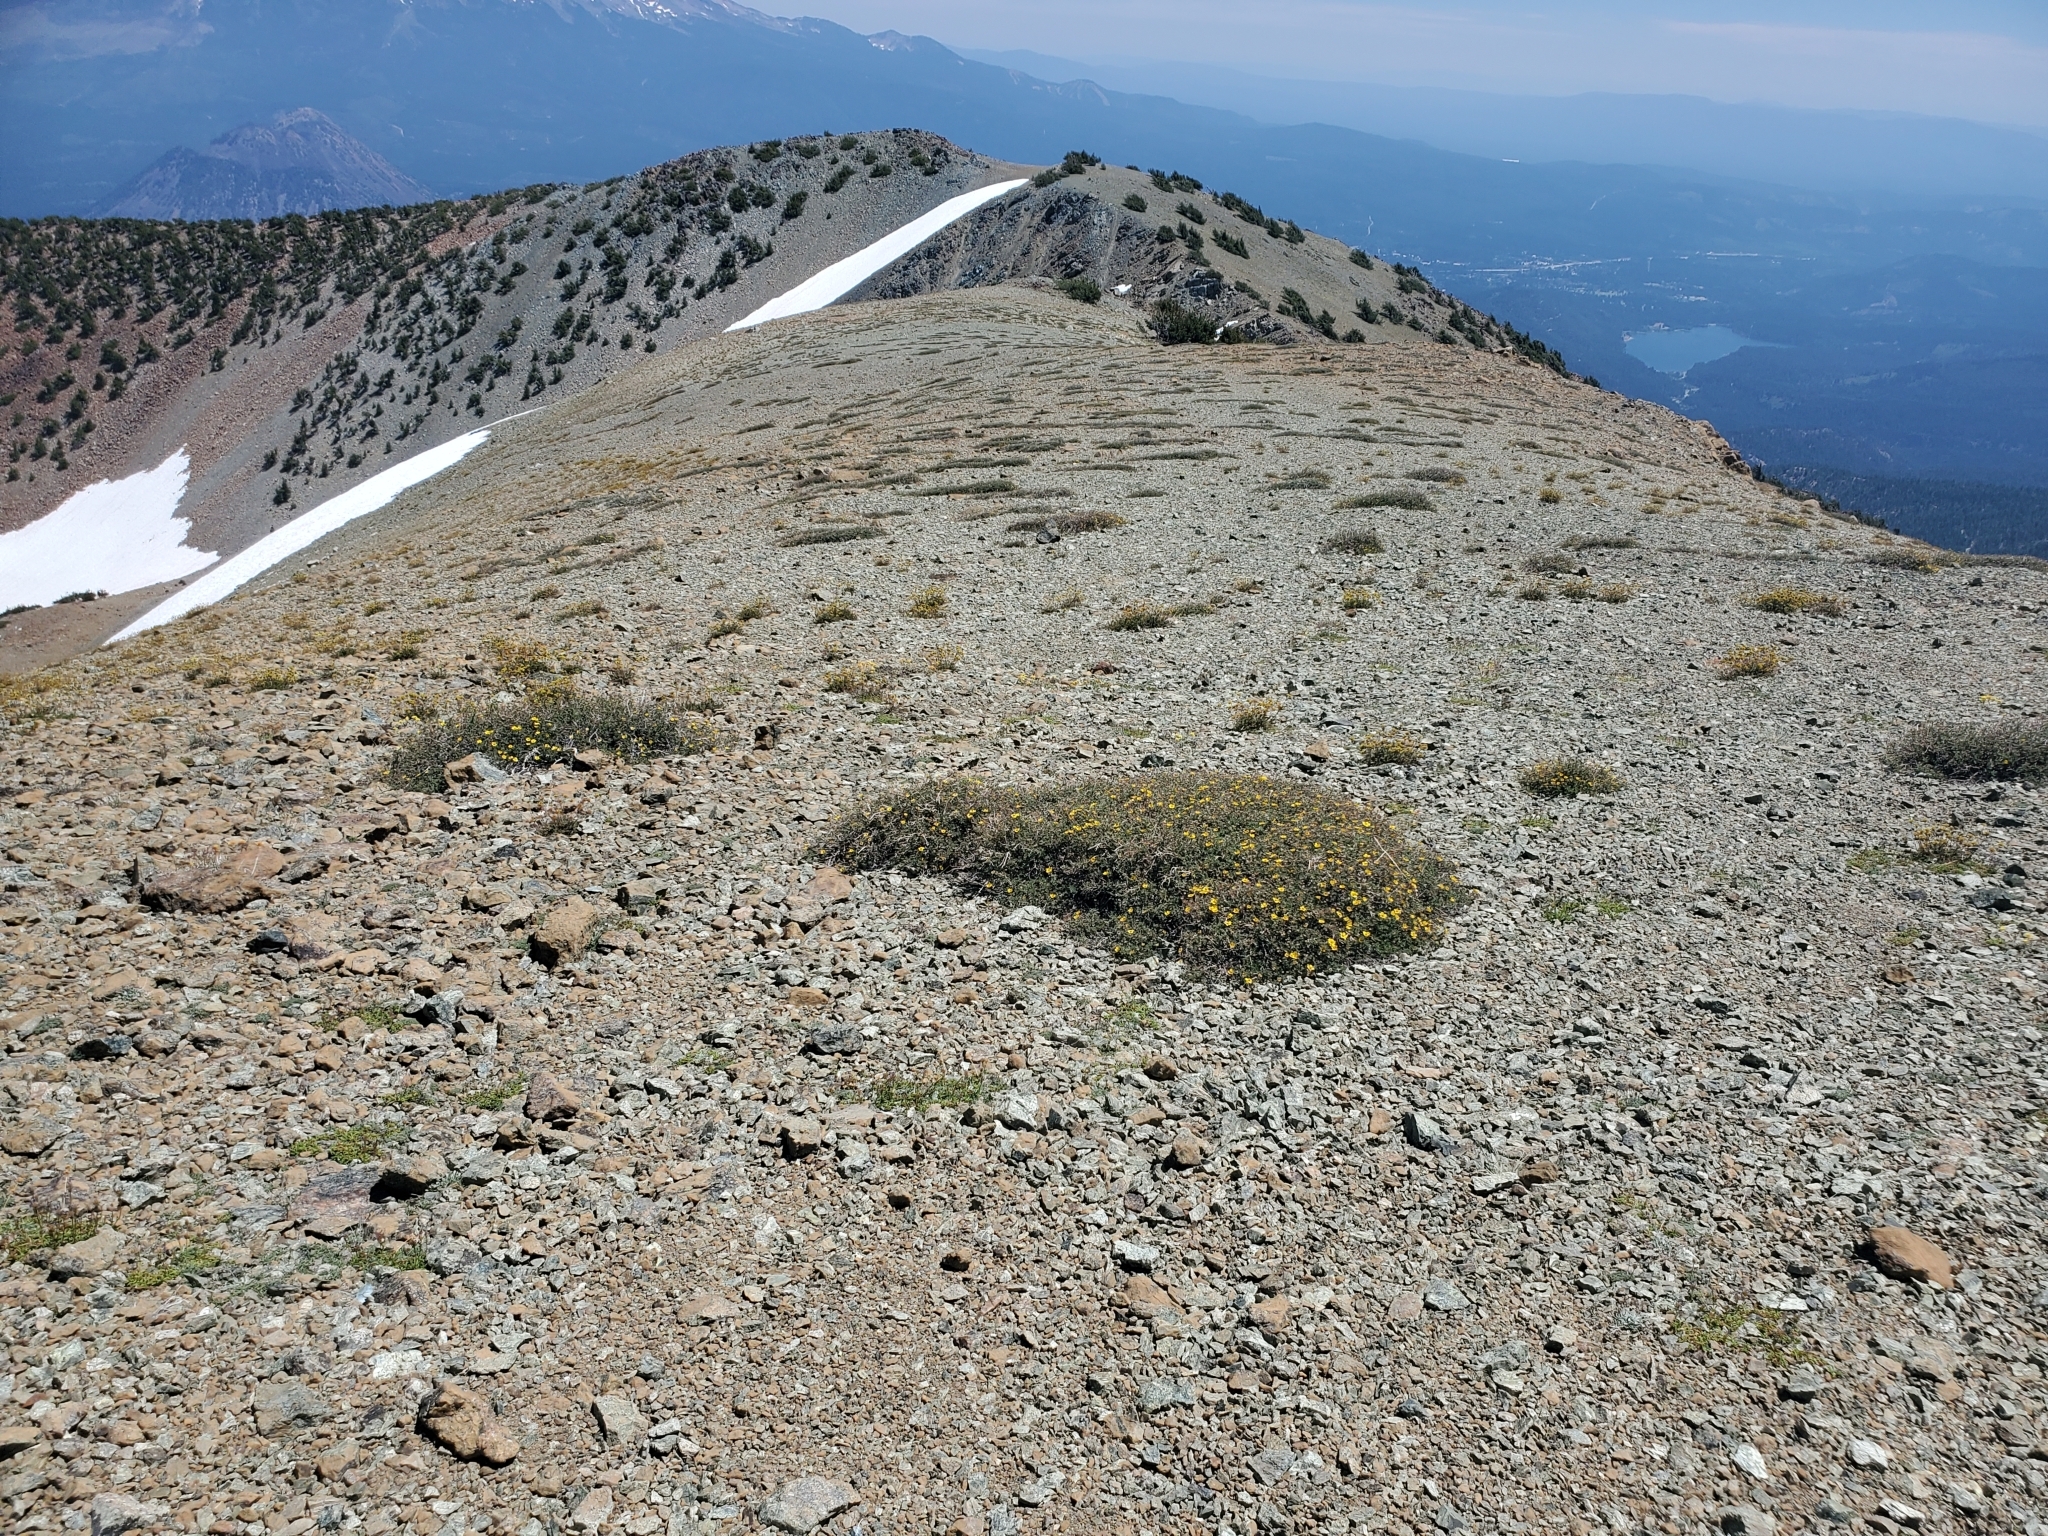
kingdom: Plantae
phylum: Tracheophyta
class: Magnoliopsida
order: Rosales
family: Rosaceae
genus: Dasiphora
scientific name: Dasiphora fruticosa
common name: Shrubby cinquefoil
